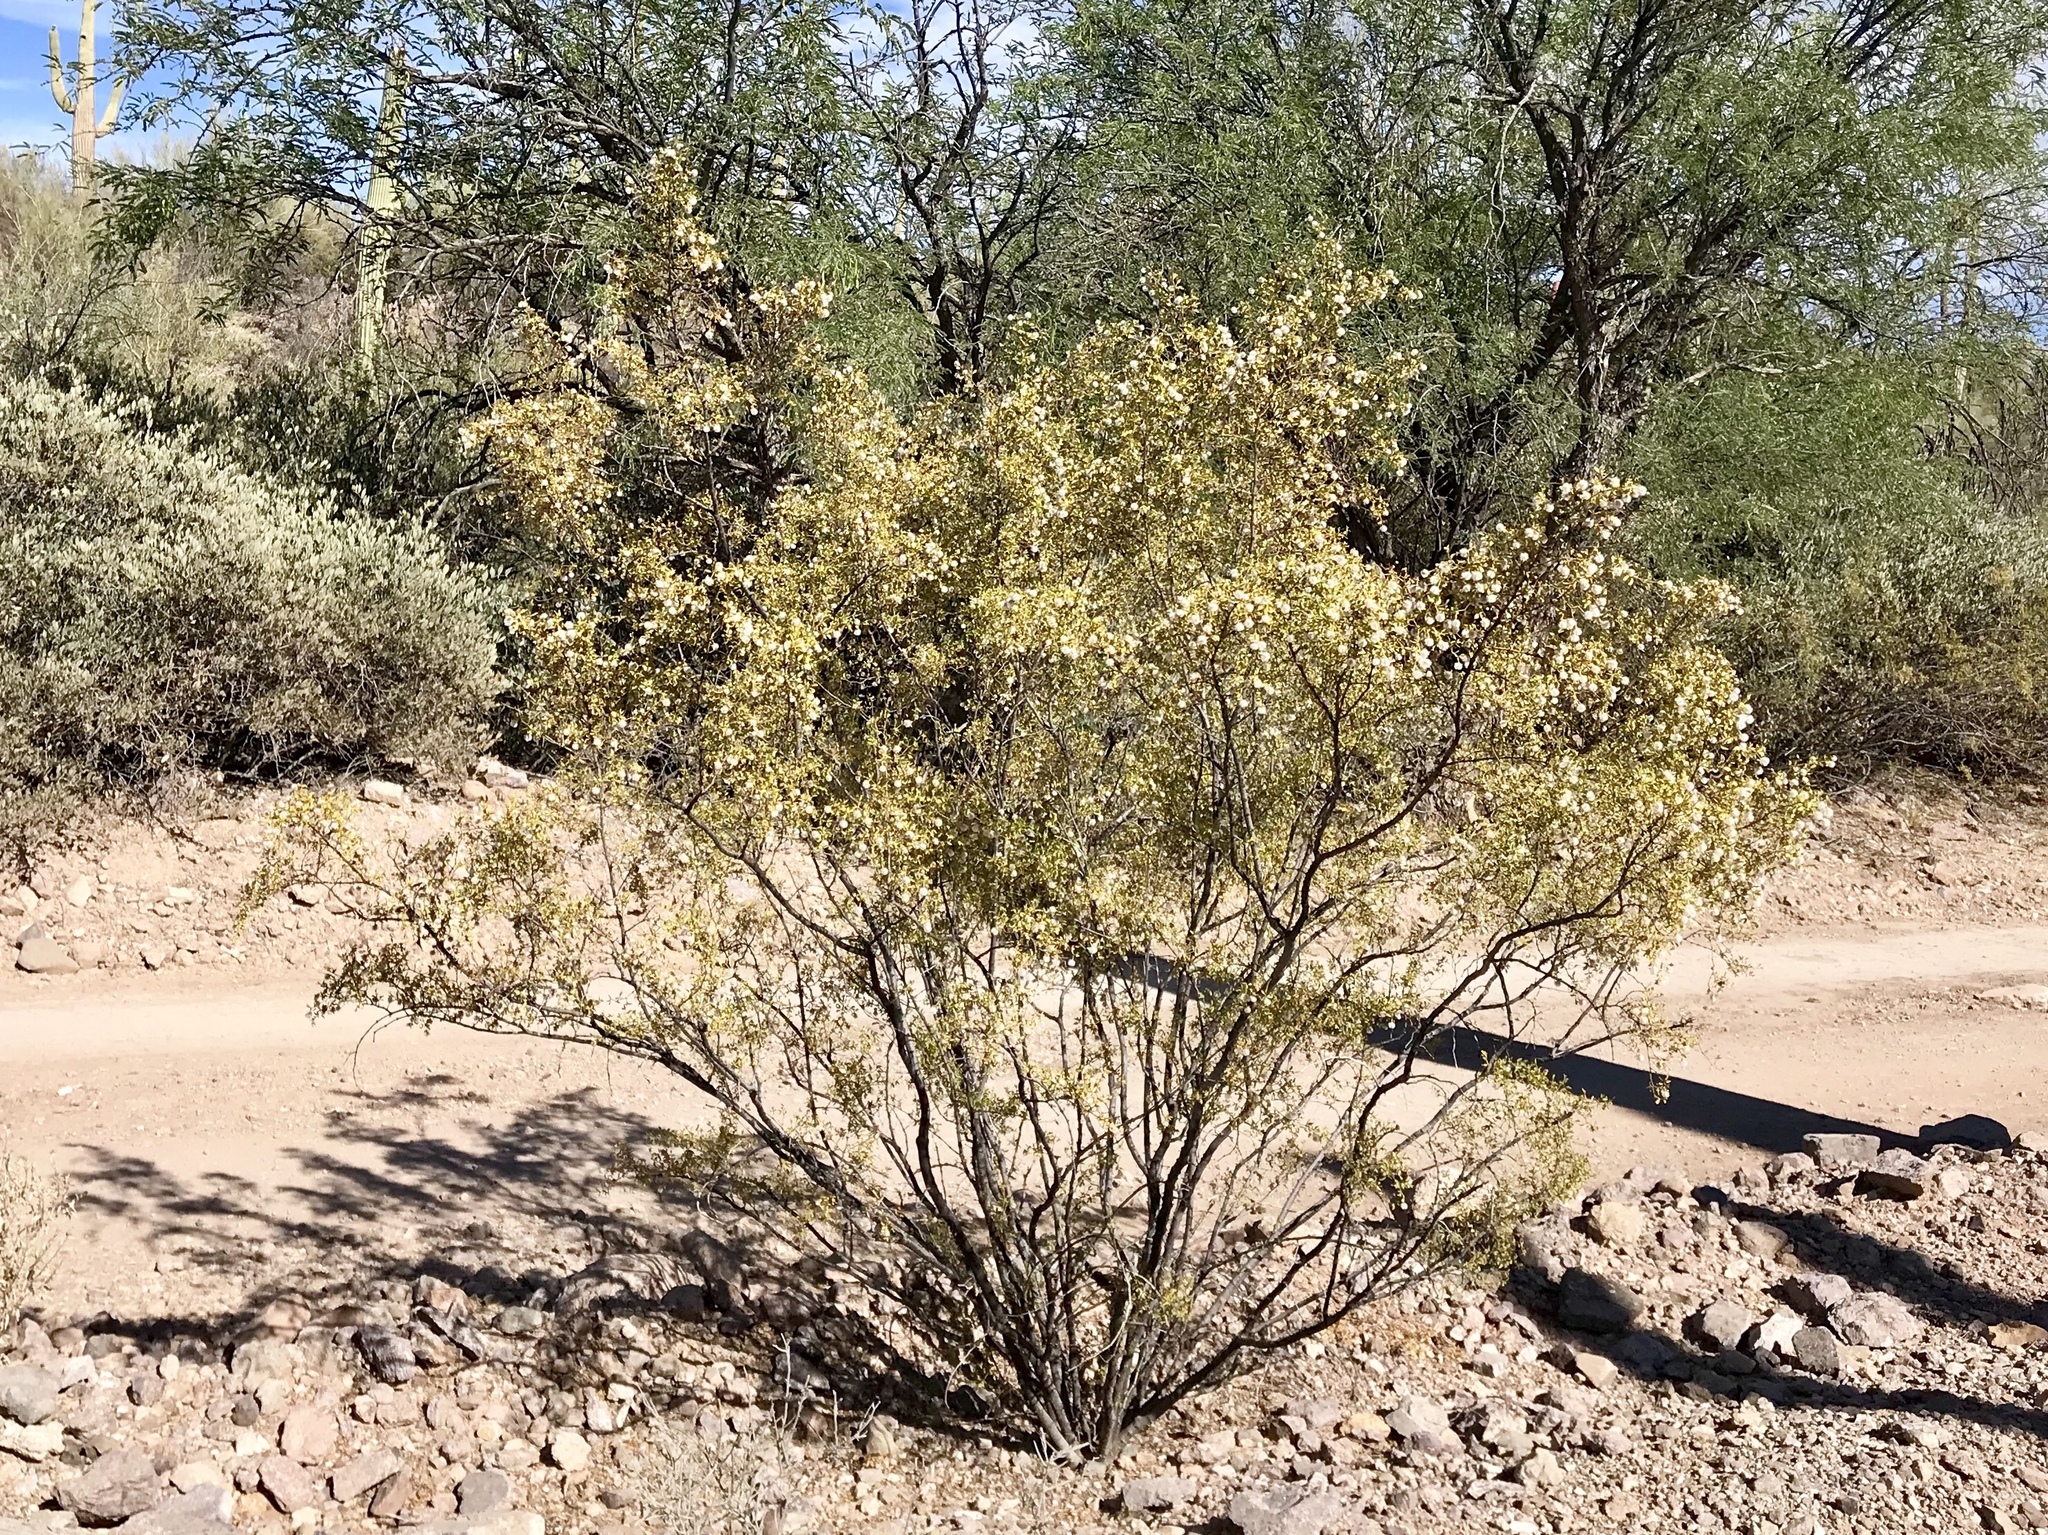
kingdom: Plantae
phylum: Tracheophyta
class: Magnoliopsida
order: Zygophyllales
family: Zygophyllaceae
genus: Larrea
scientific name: Larrea tridentata
